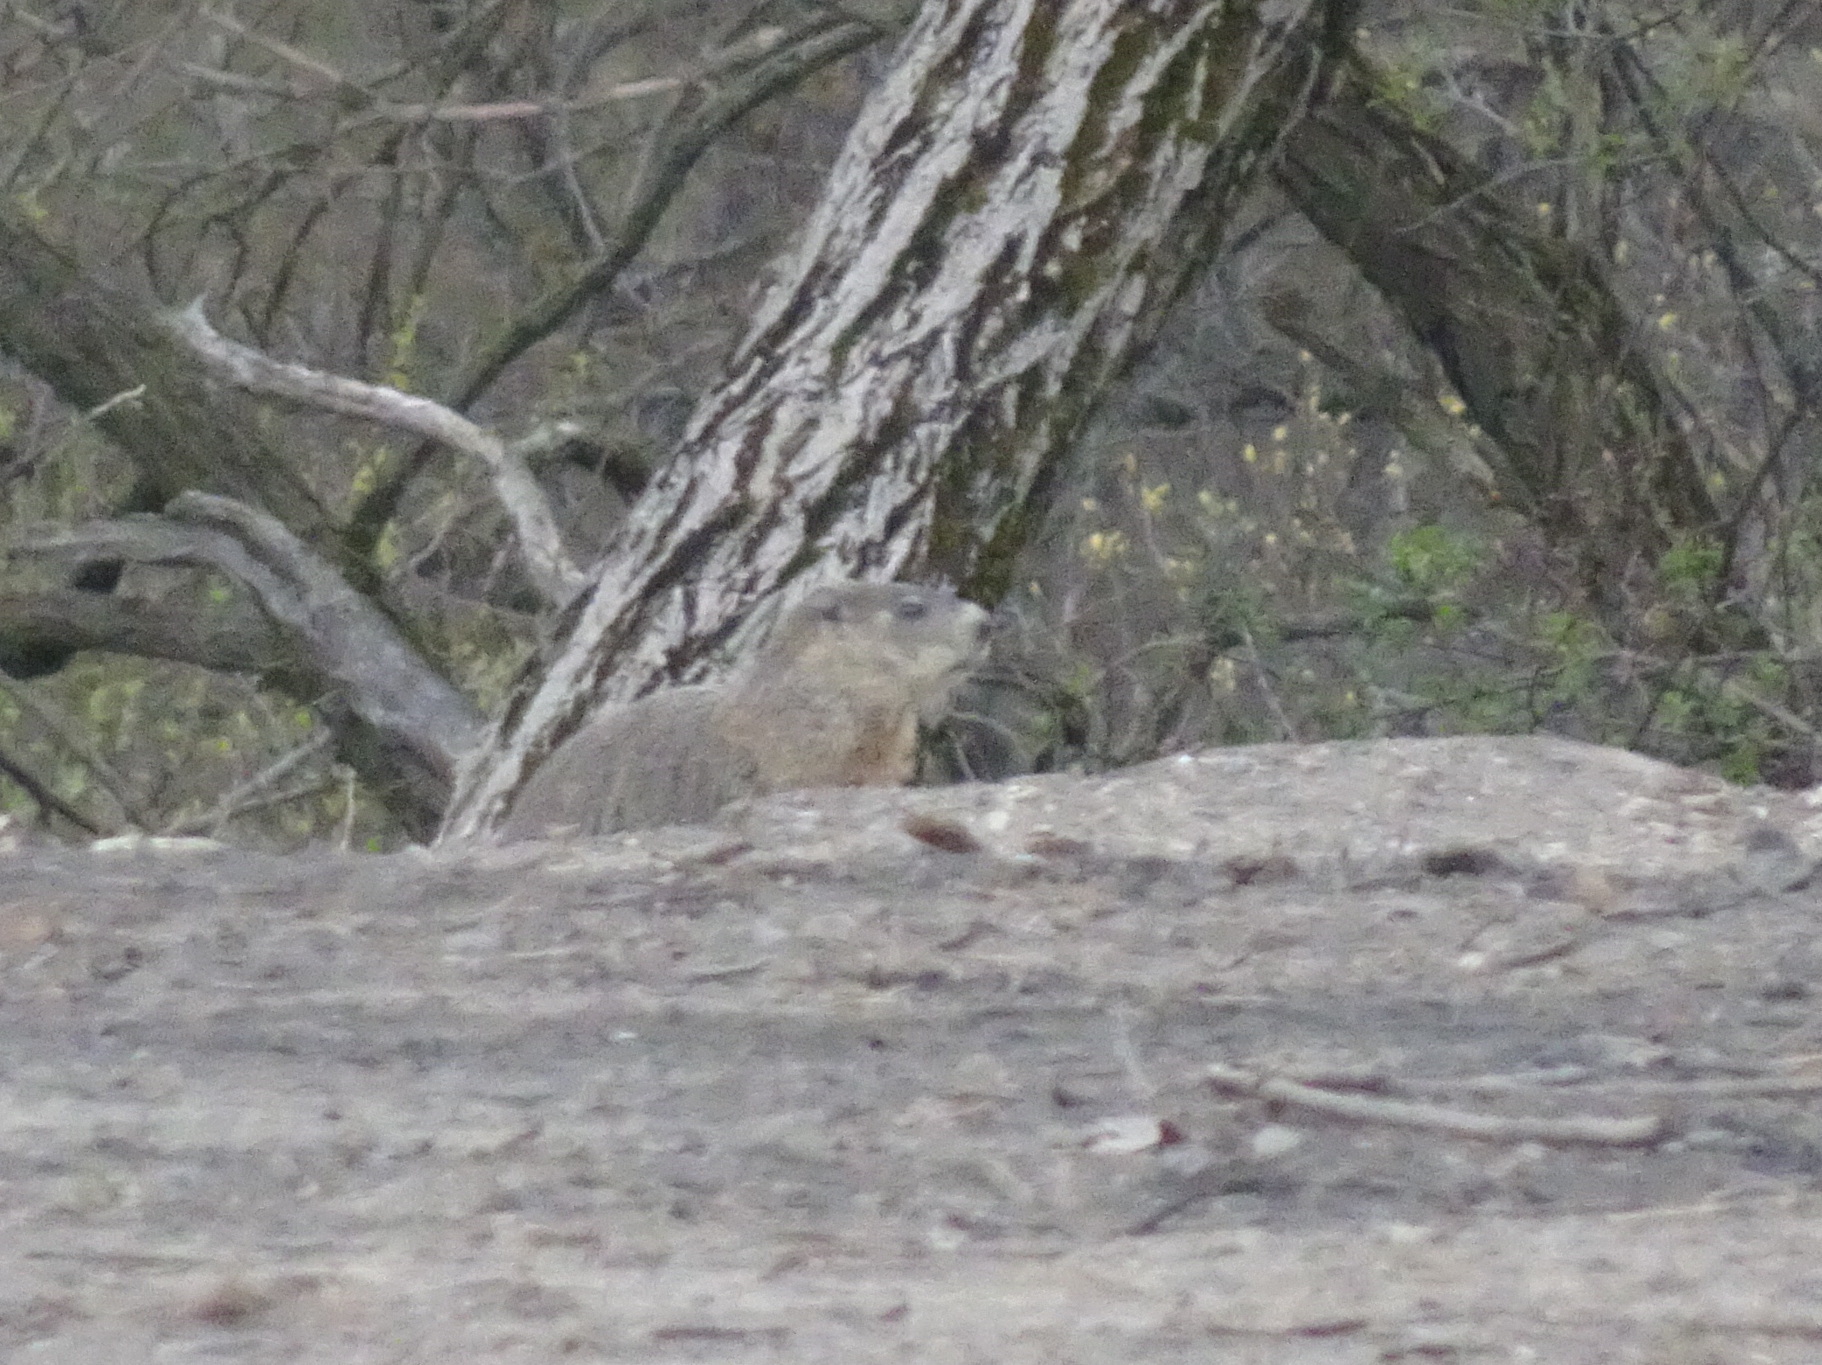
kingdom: Animalia
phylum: Chordata
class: Mammalia
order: Rodentia
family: Sciuridae
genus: Marmota
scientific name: Marmota monax
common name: Groundhog
